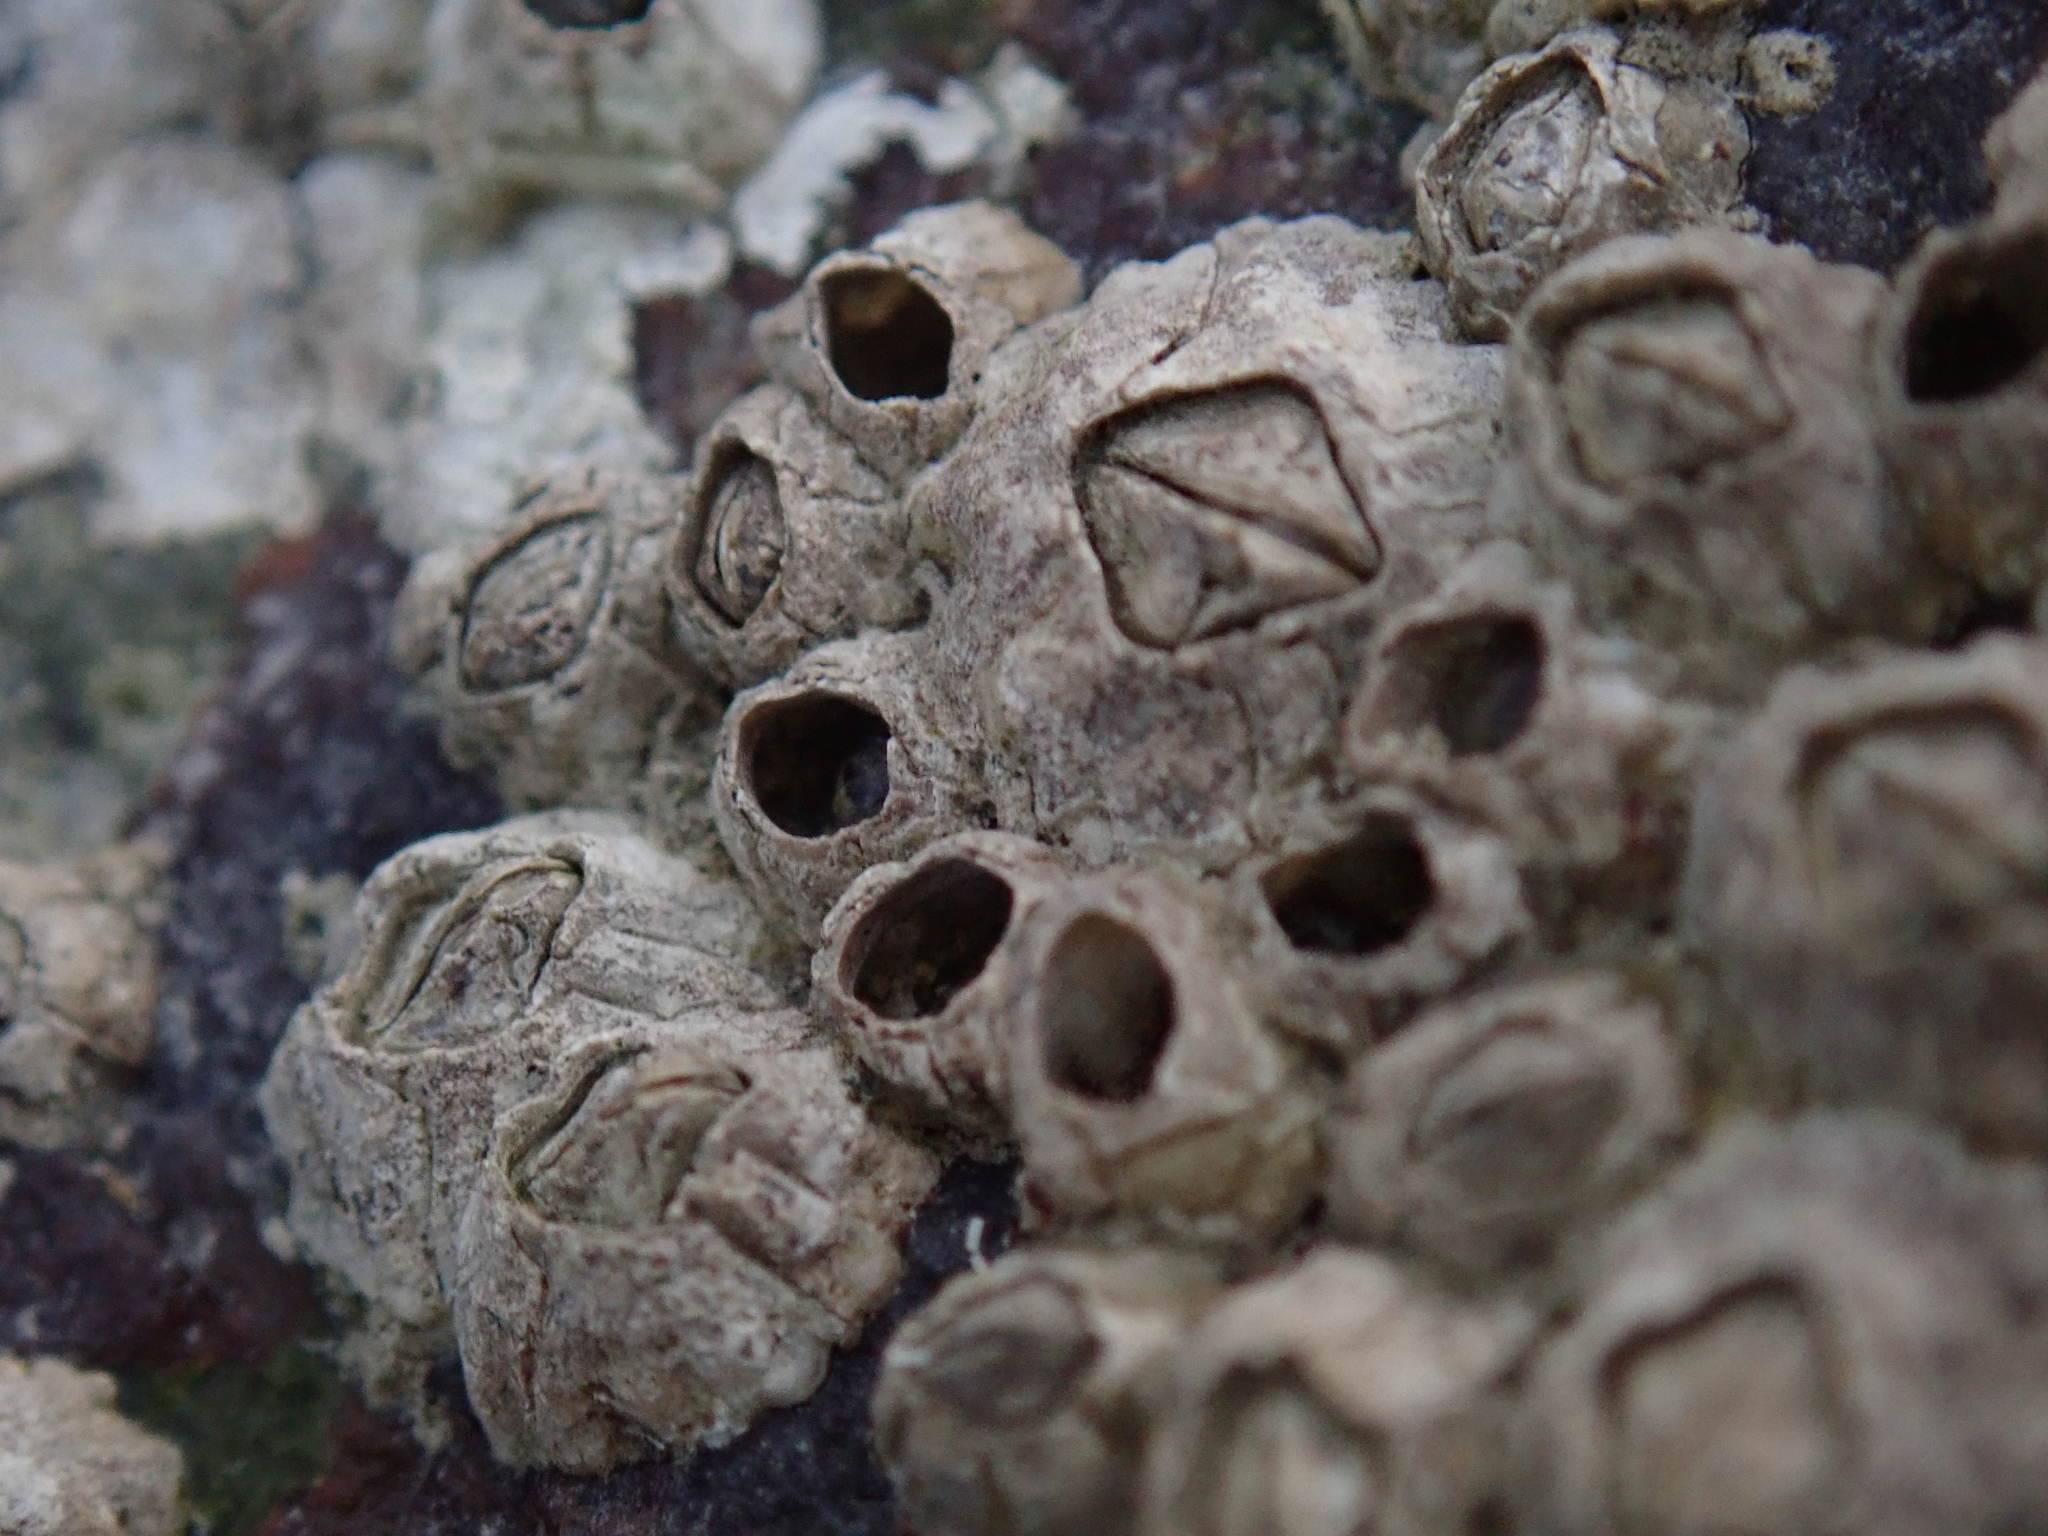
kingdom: Animalia
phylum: Arthropoda
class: Maxillopoda
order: Sessilia
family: Chthamalidae
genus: Chthamalus
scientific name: Chthamalus dalli
